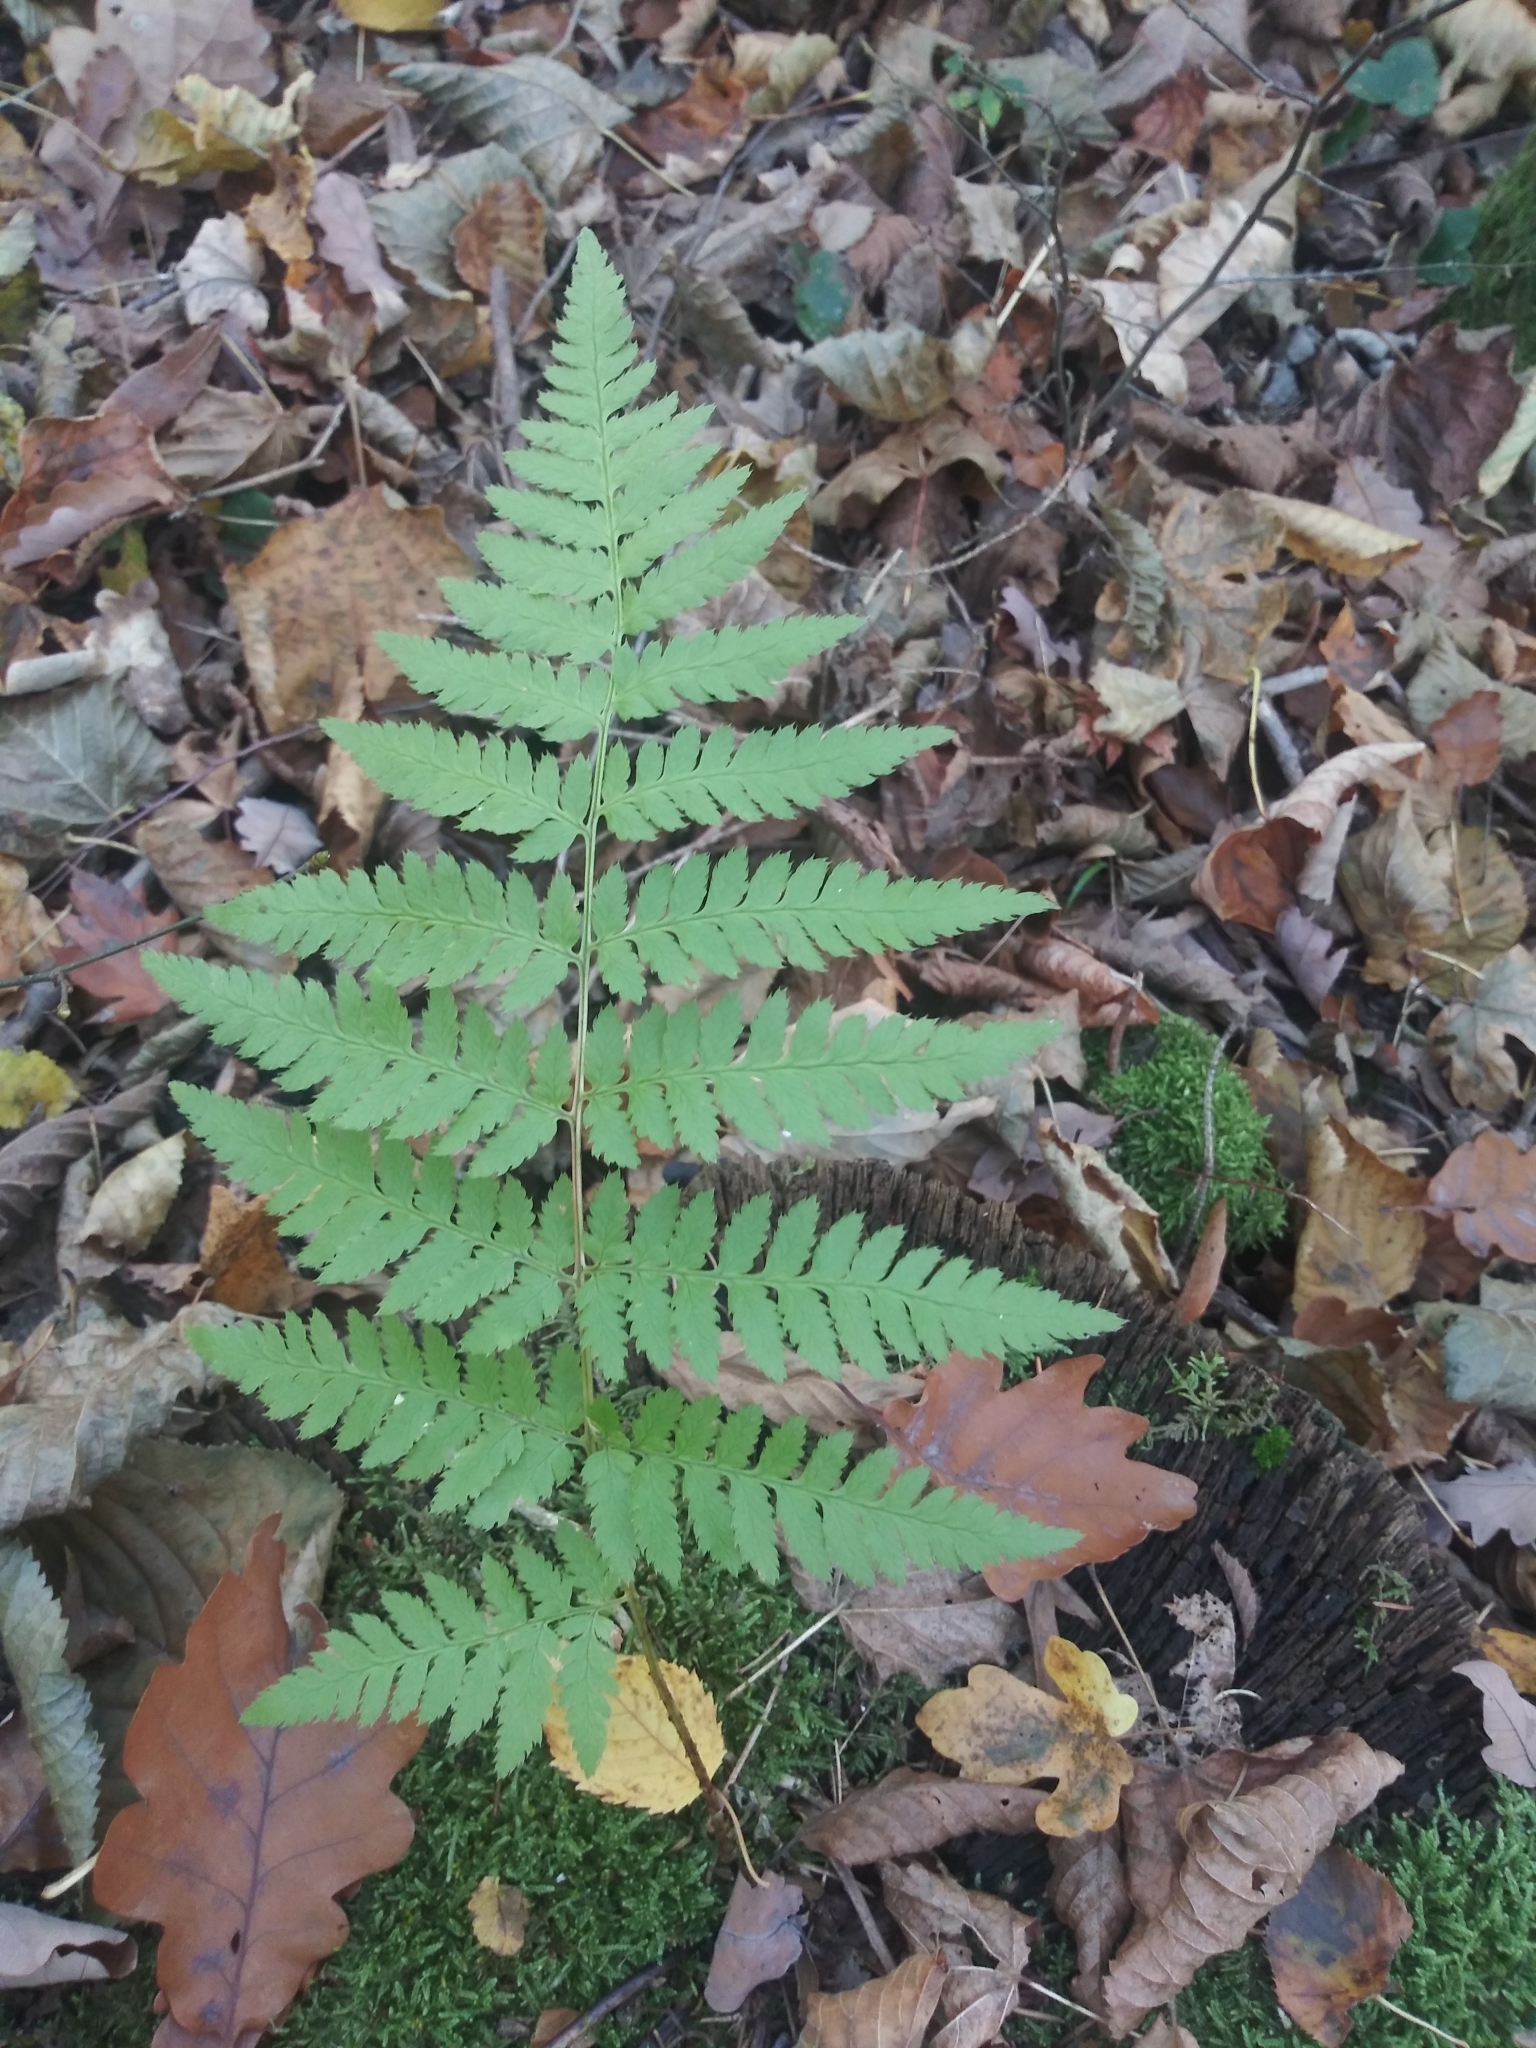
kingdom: Plantae
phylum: Tracheophyta
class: Polypodiopsida
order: Polypodiales
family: Dryopteridaceae
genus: Dryopteris
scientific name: Dryopteris carthusiana
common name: Narrow buckler-fern
